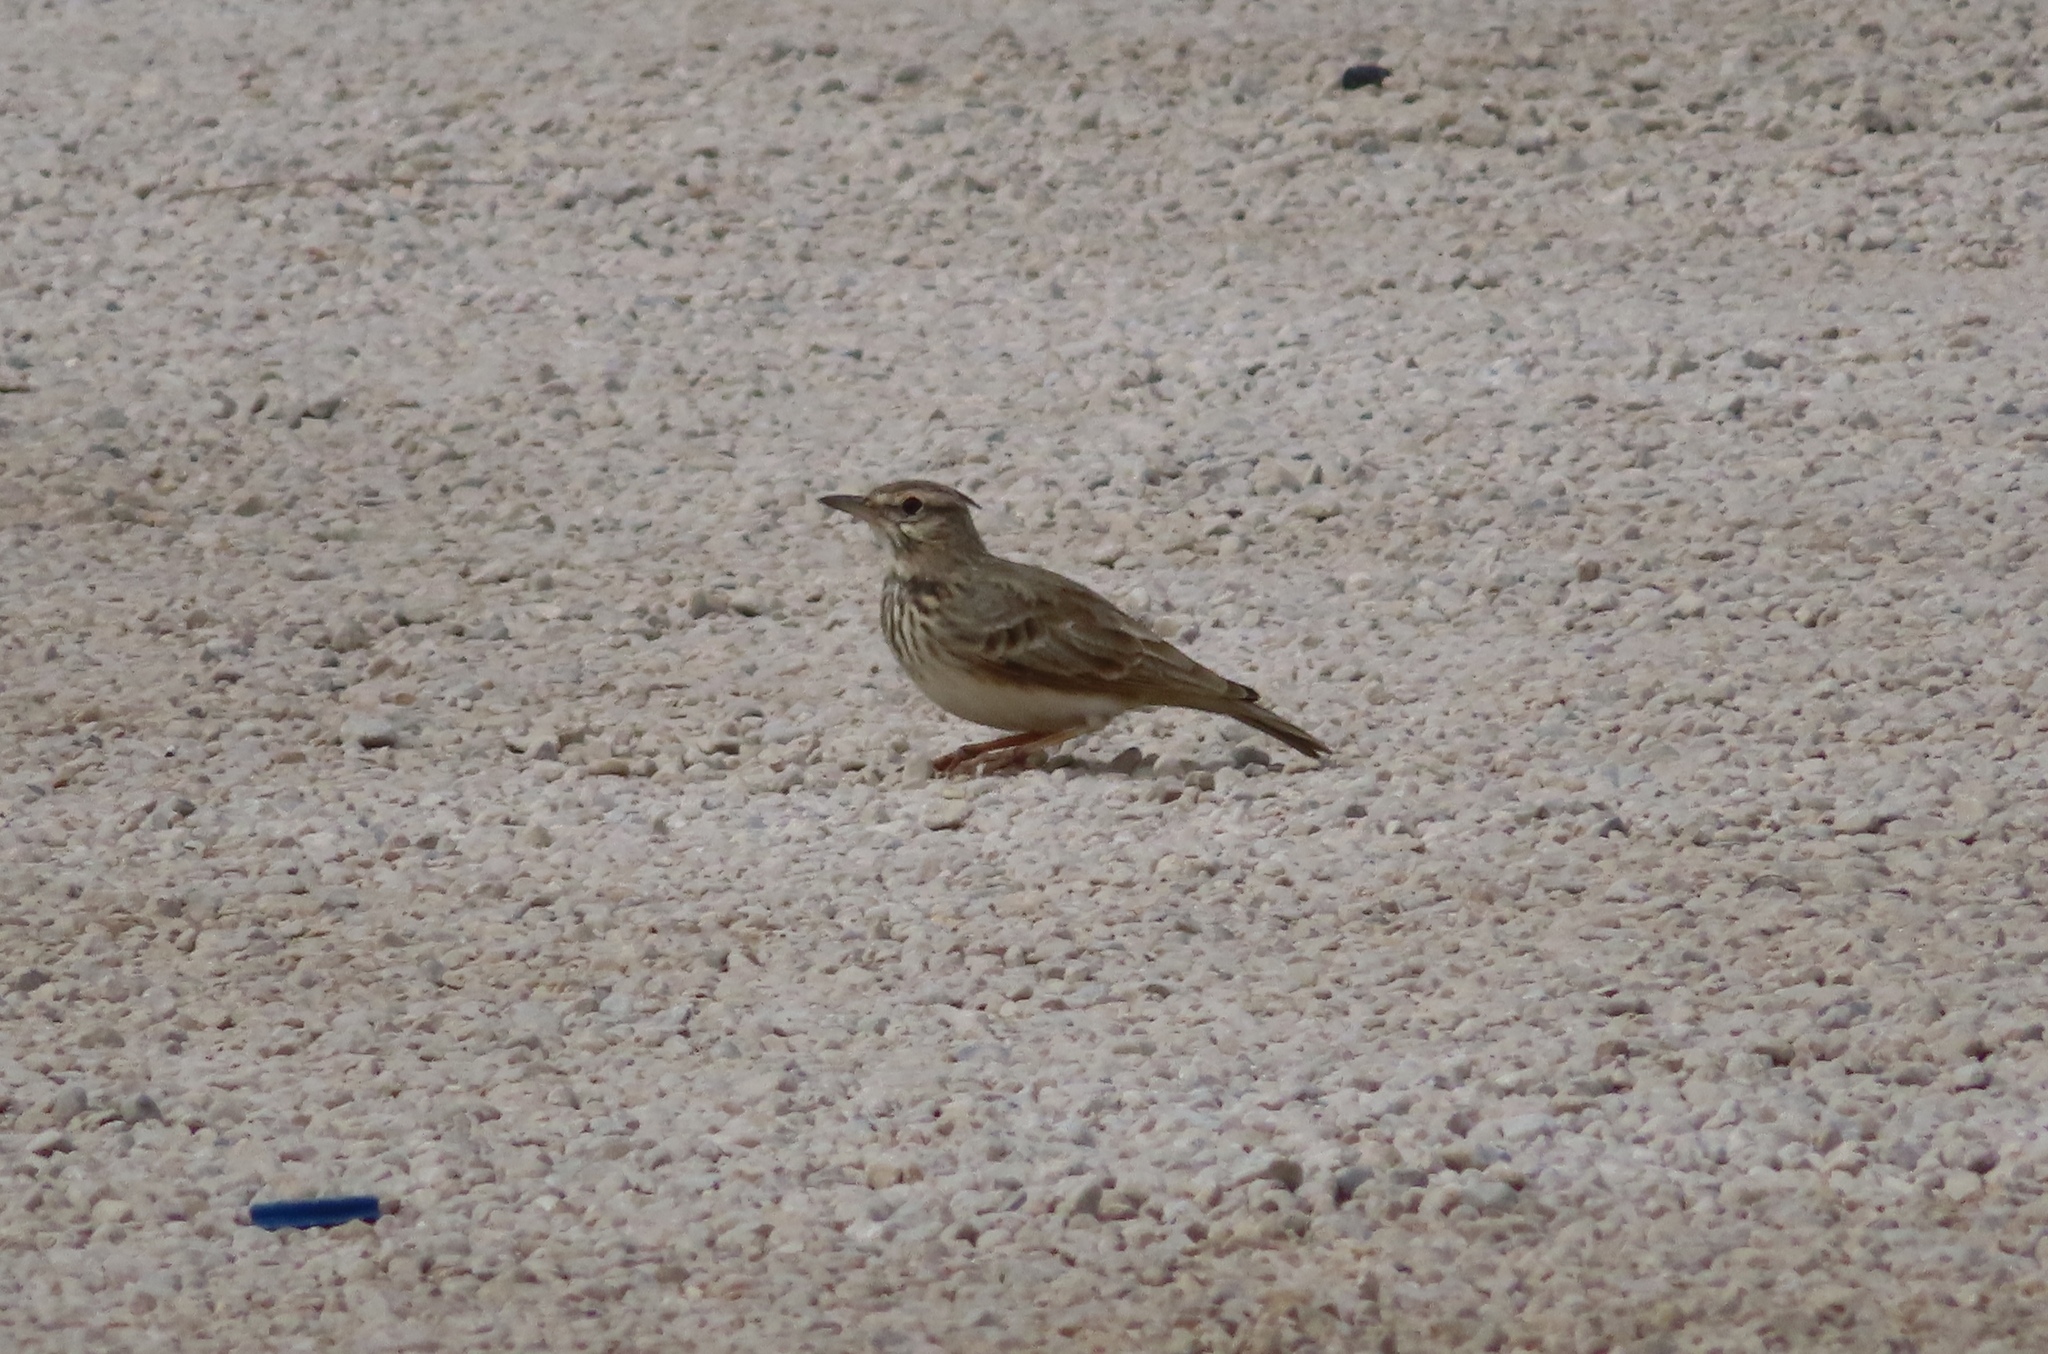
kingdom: Animalia
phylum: Chordata
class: Aves
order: Passeriformes
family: Alaudidae
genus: Galerida
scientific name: Galerida cristata
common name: Crested lark
